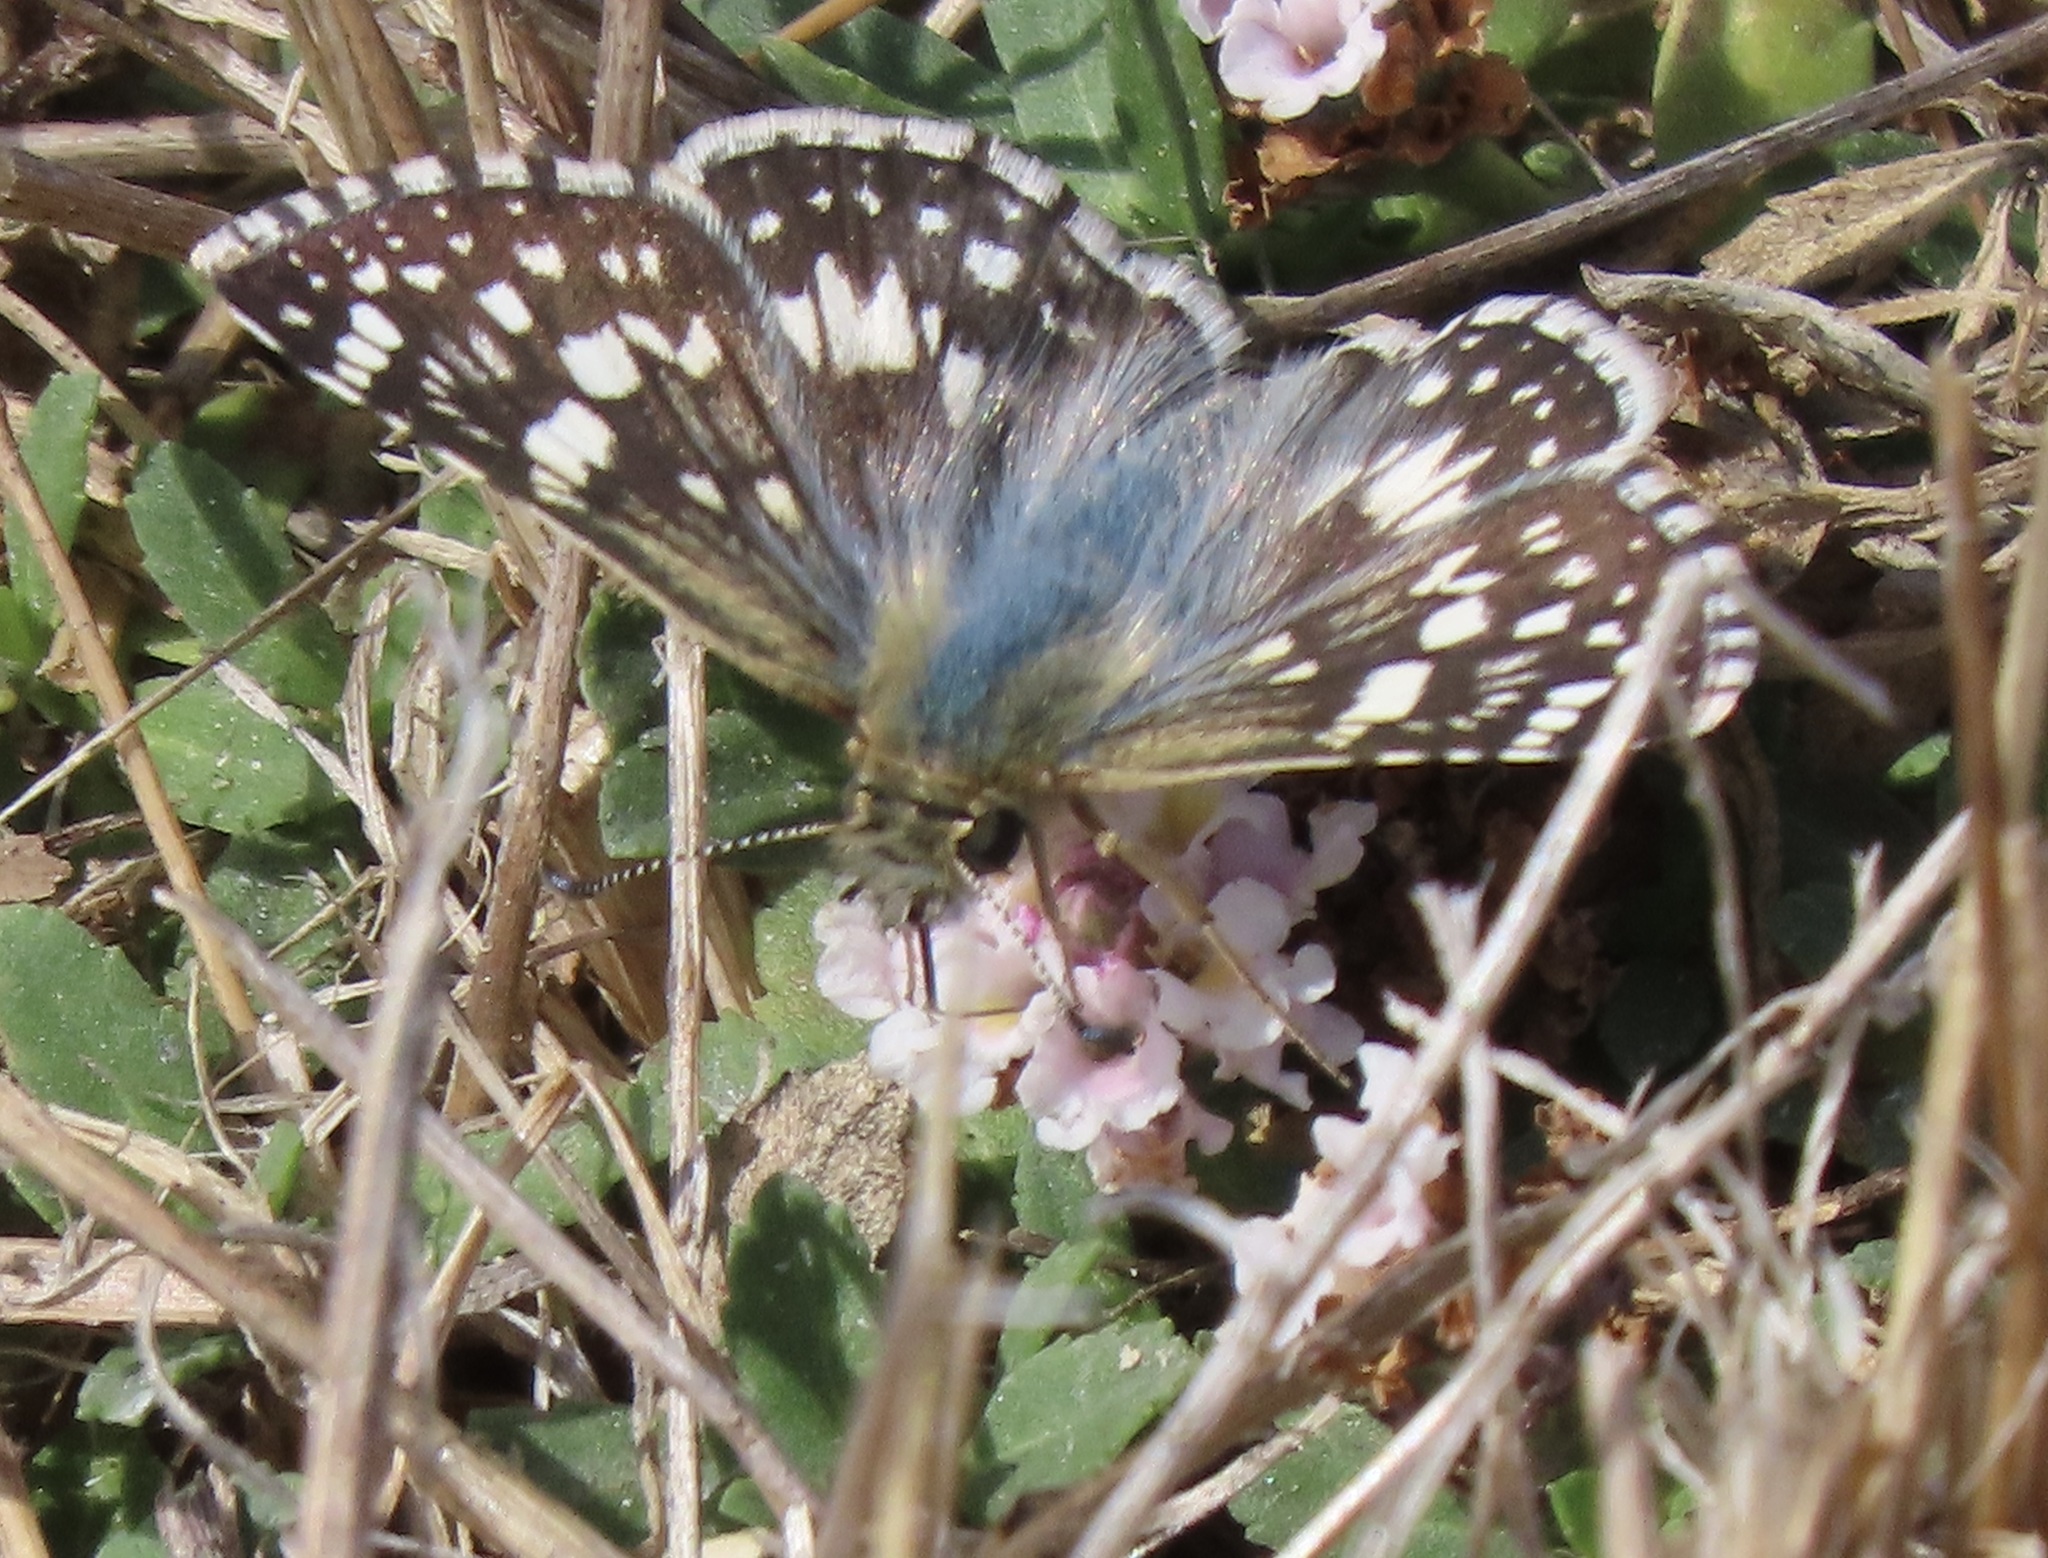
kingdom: Animalia
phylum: Arthropoda
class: Insecta
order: Lepidoptera
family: Hesperiidae
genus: Burnsius
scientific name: Burnsius communis
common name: Common checkered-skipper
